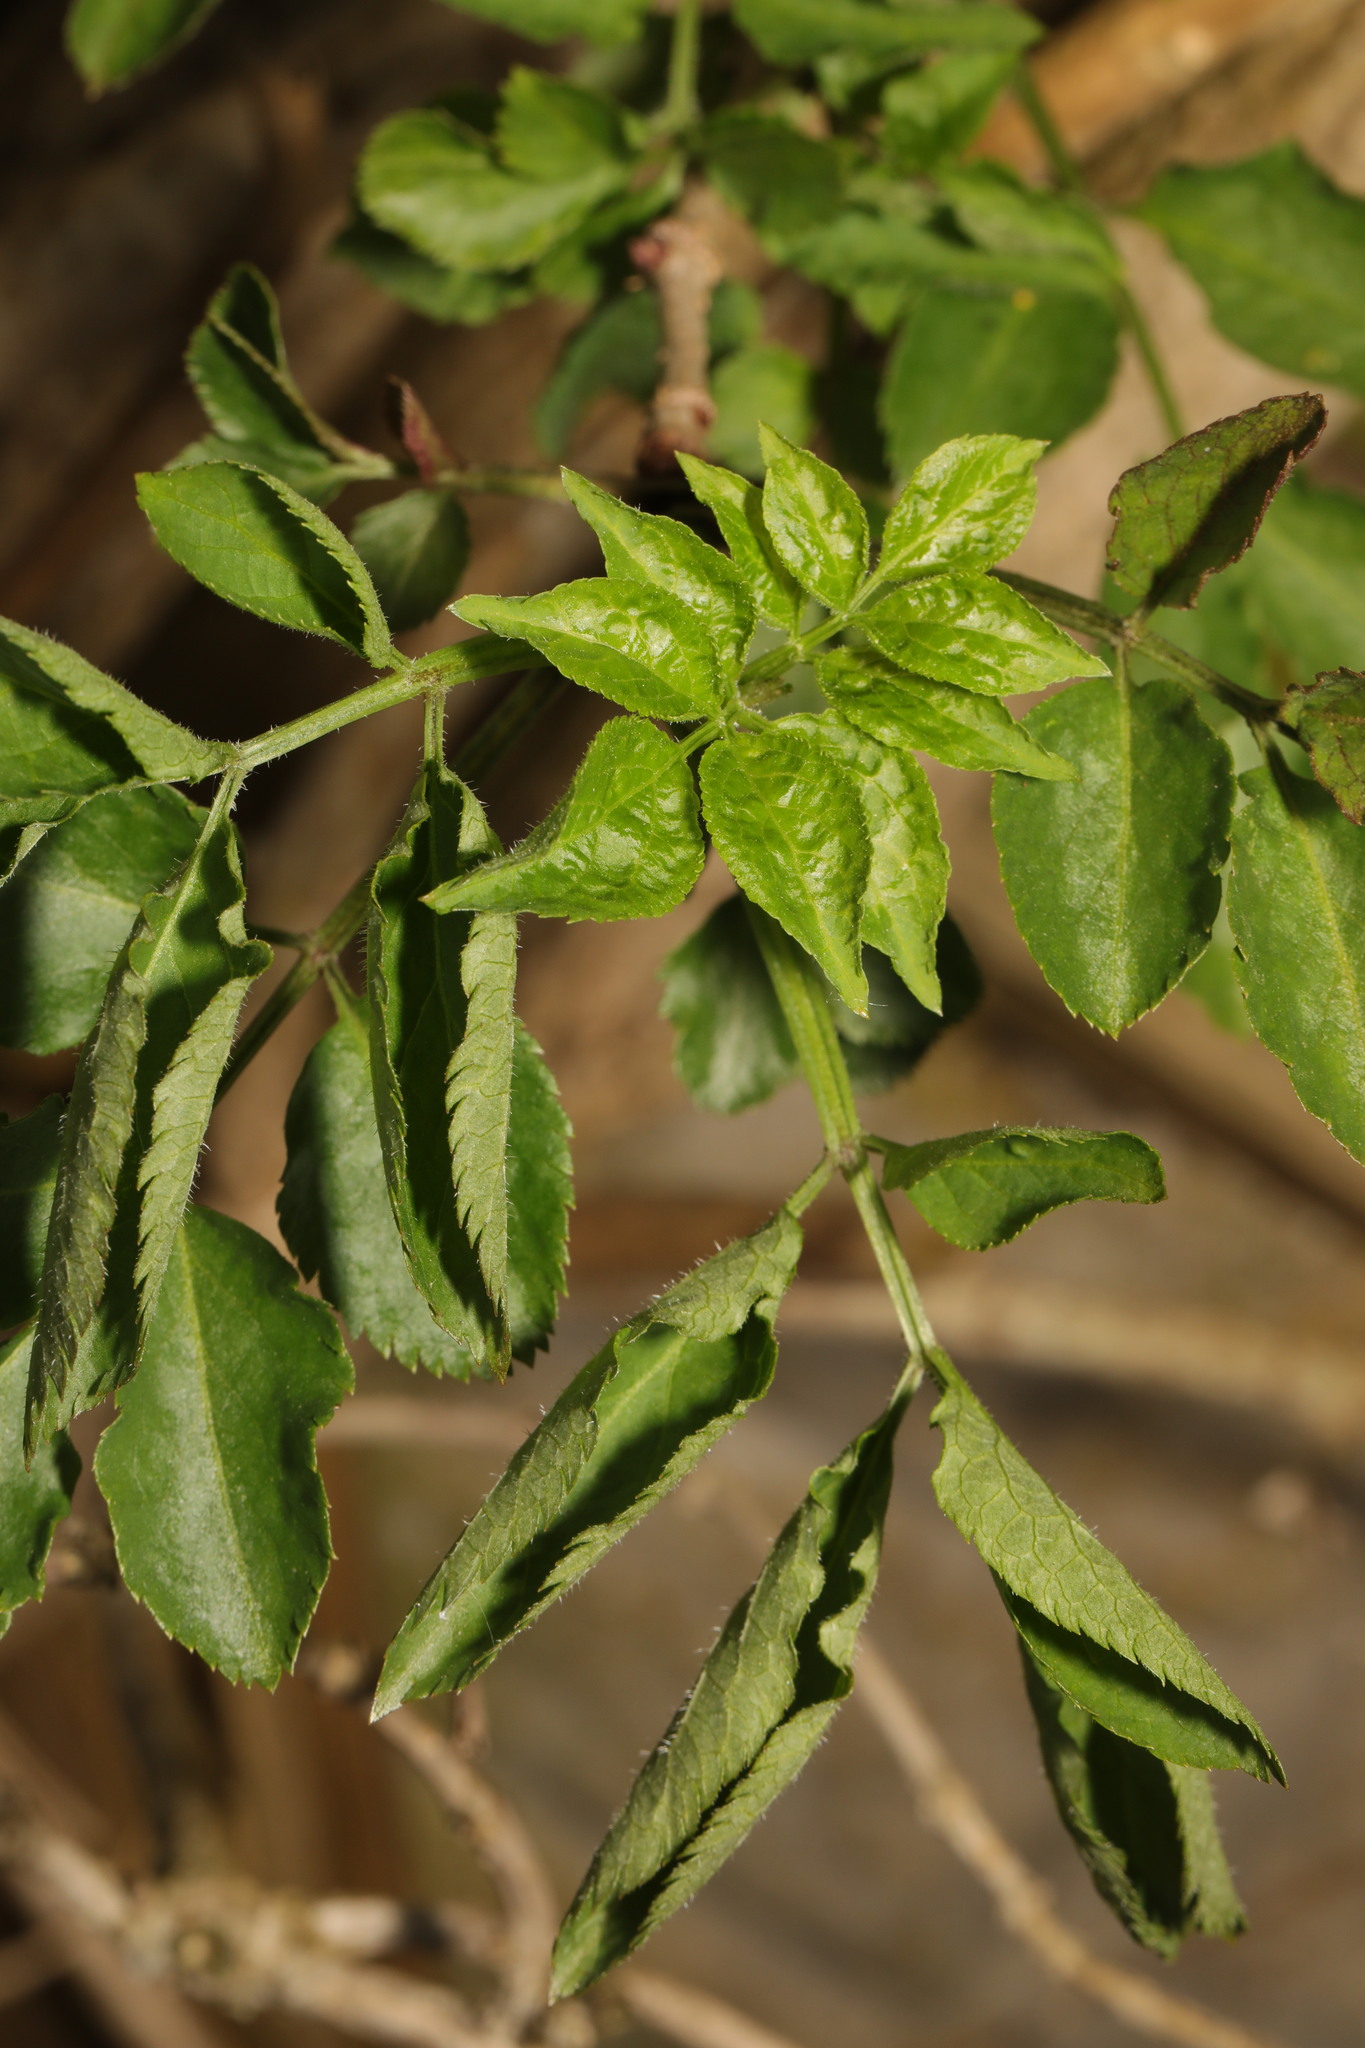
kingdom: Plantae
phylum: Tracheophyta
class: Magnoliopsida
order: Dipsacales
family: Viburnaceae
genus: Sambucus
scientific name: Sambucus nigra
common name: Elder
